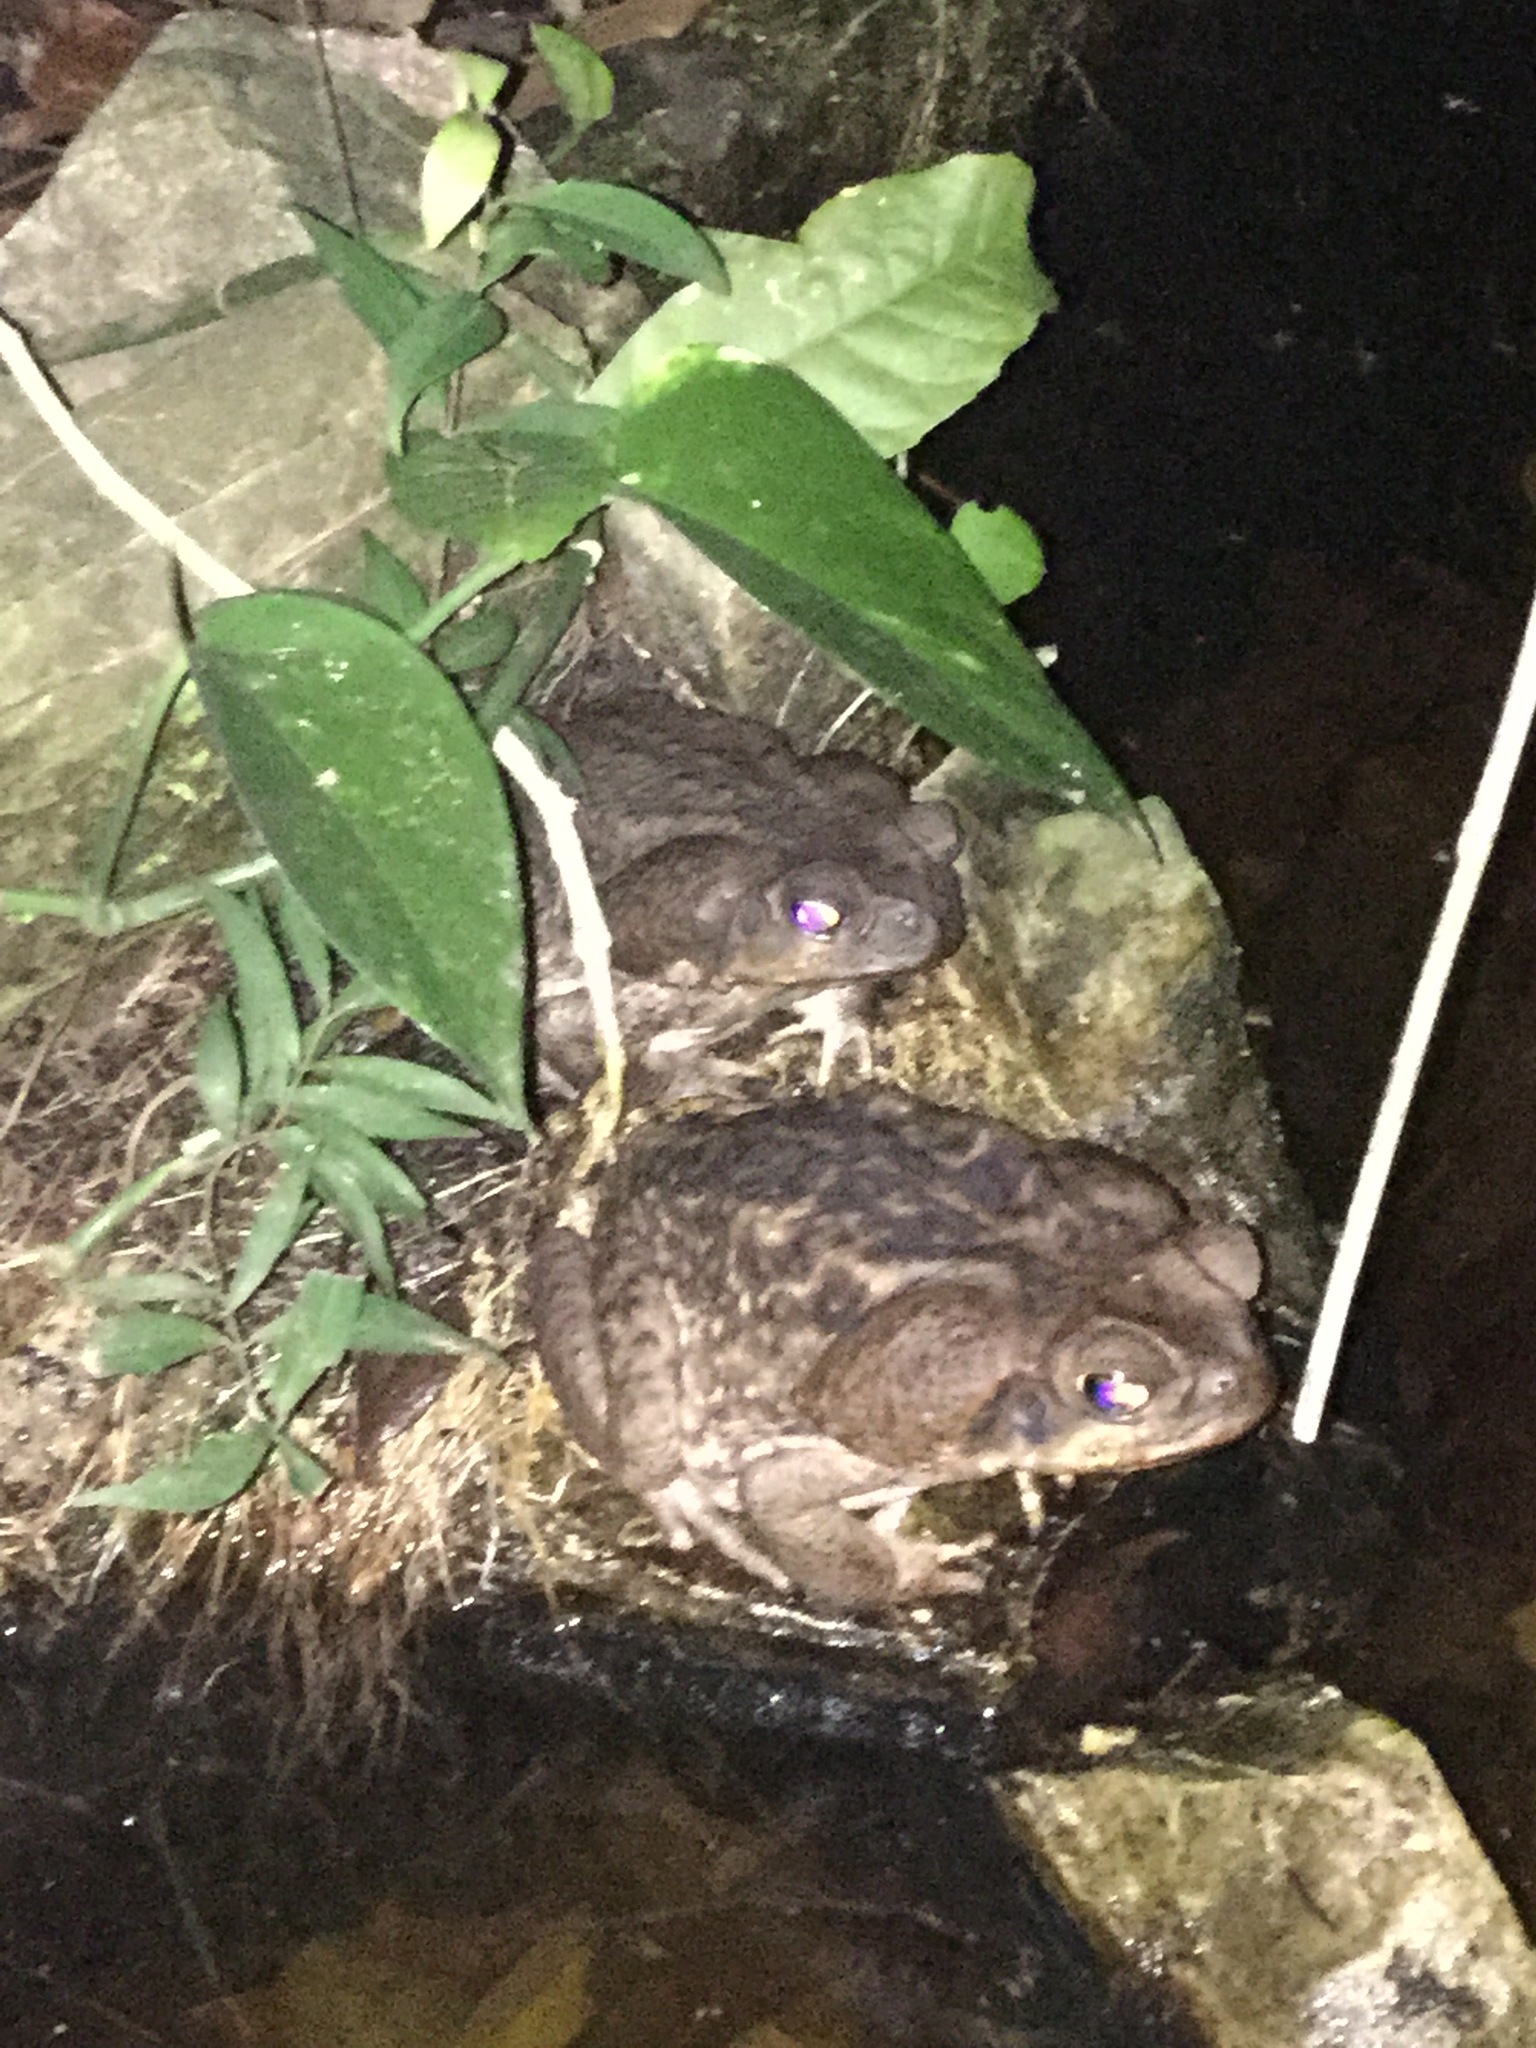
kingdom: Animalia
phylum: Chordata
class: Amphibia
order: Anura
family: Bufonidae
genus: Rhinella
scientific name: Rhinella horribilis
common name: Mesoamerican cane toad
